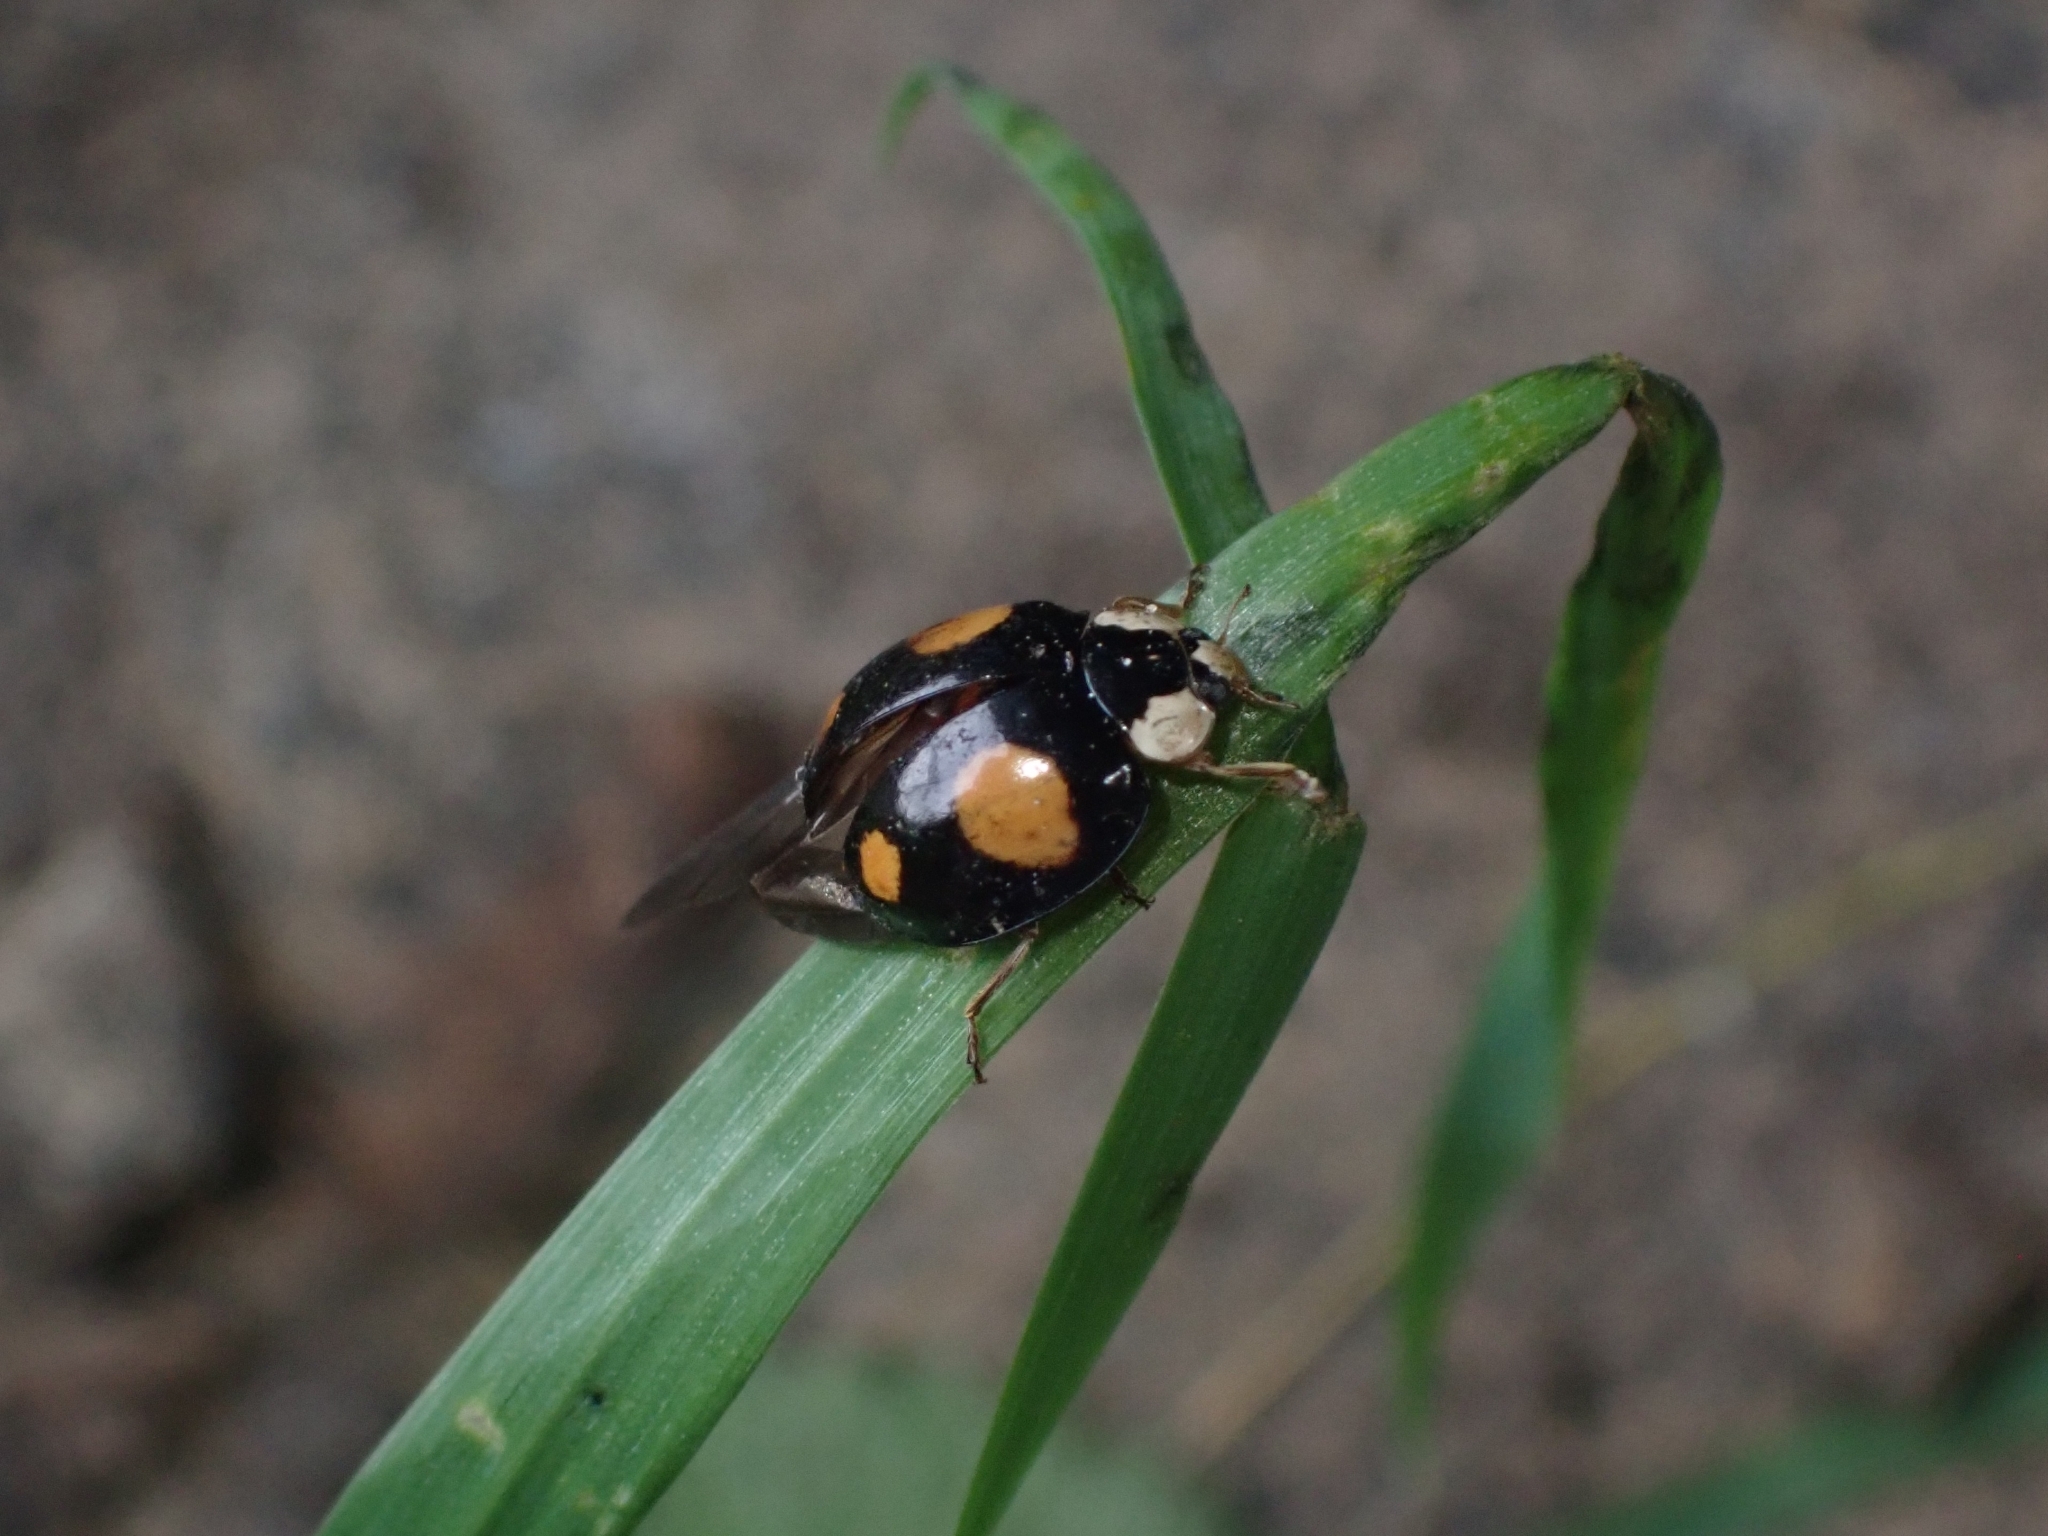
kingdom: Animalia
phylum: Arthropoda
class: Insecta
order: Coleoptera
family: Coccinellidae
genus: Harmonia
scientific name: Harmonia axyridis
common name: Harlequin ladybird
